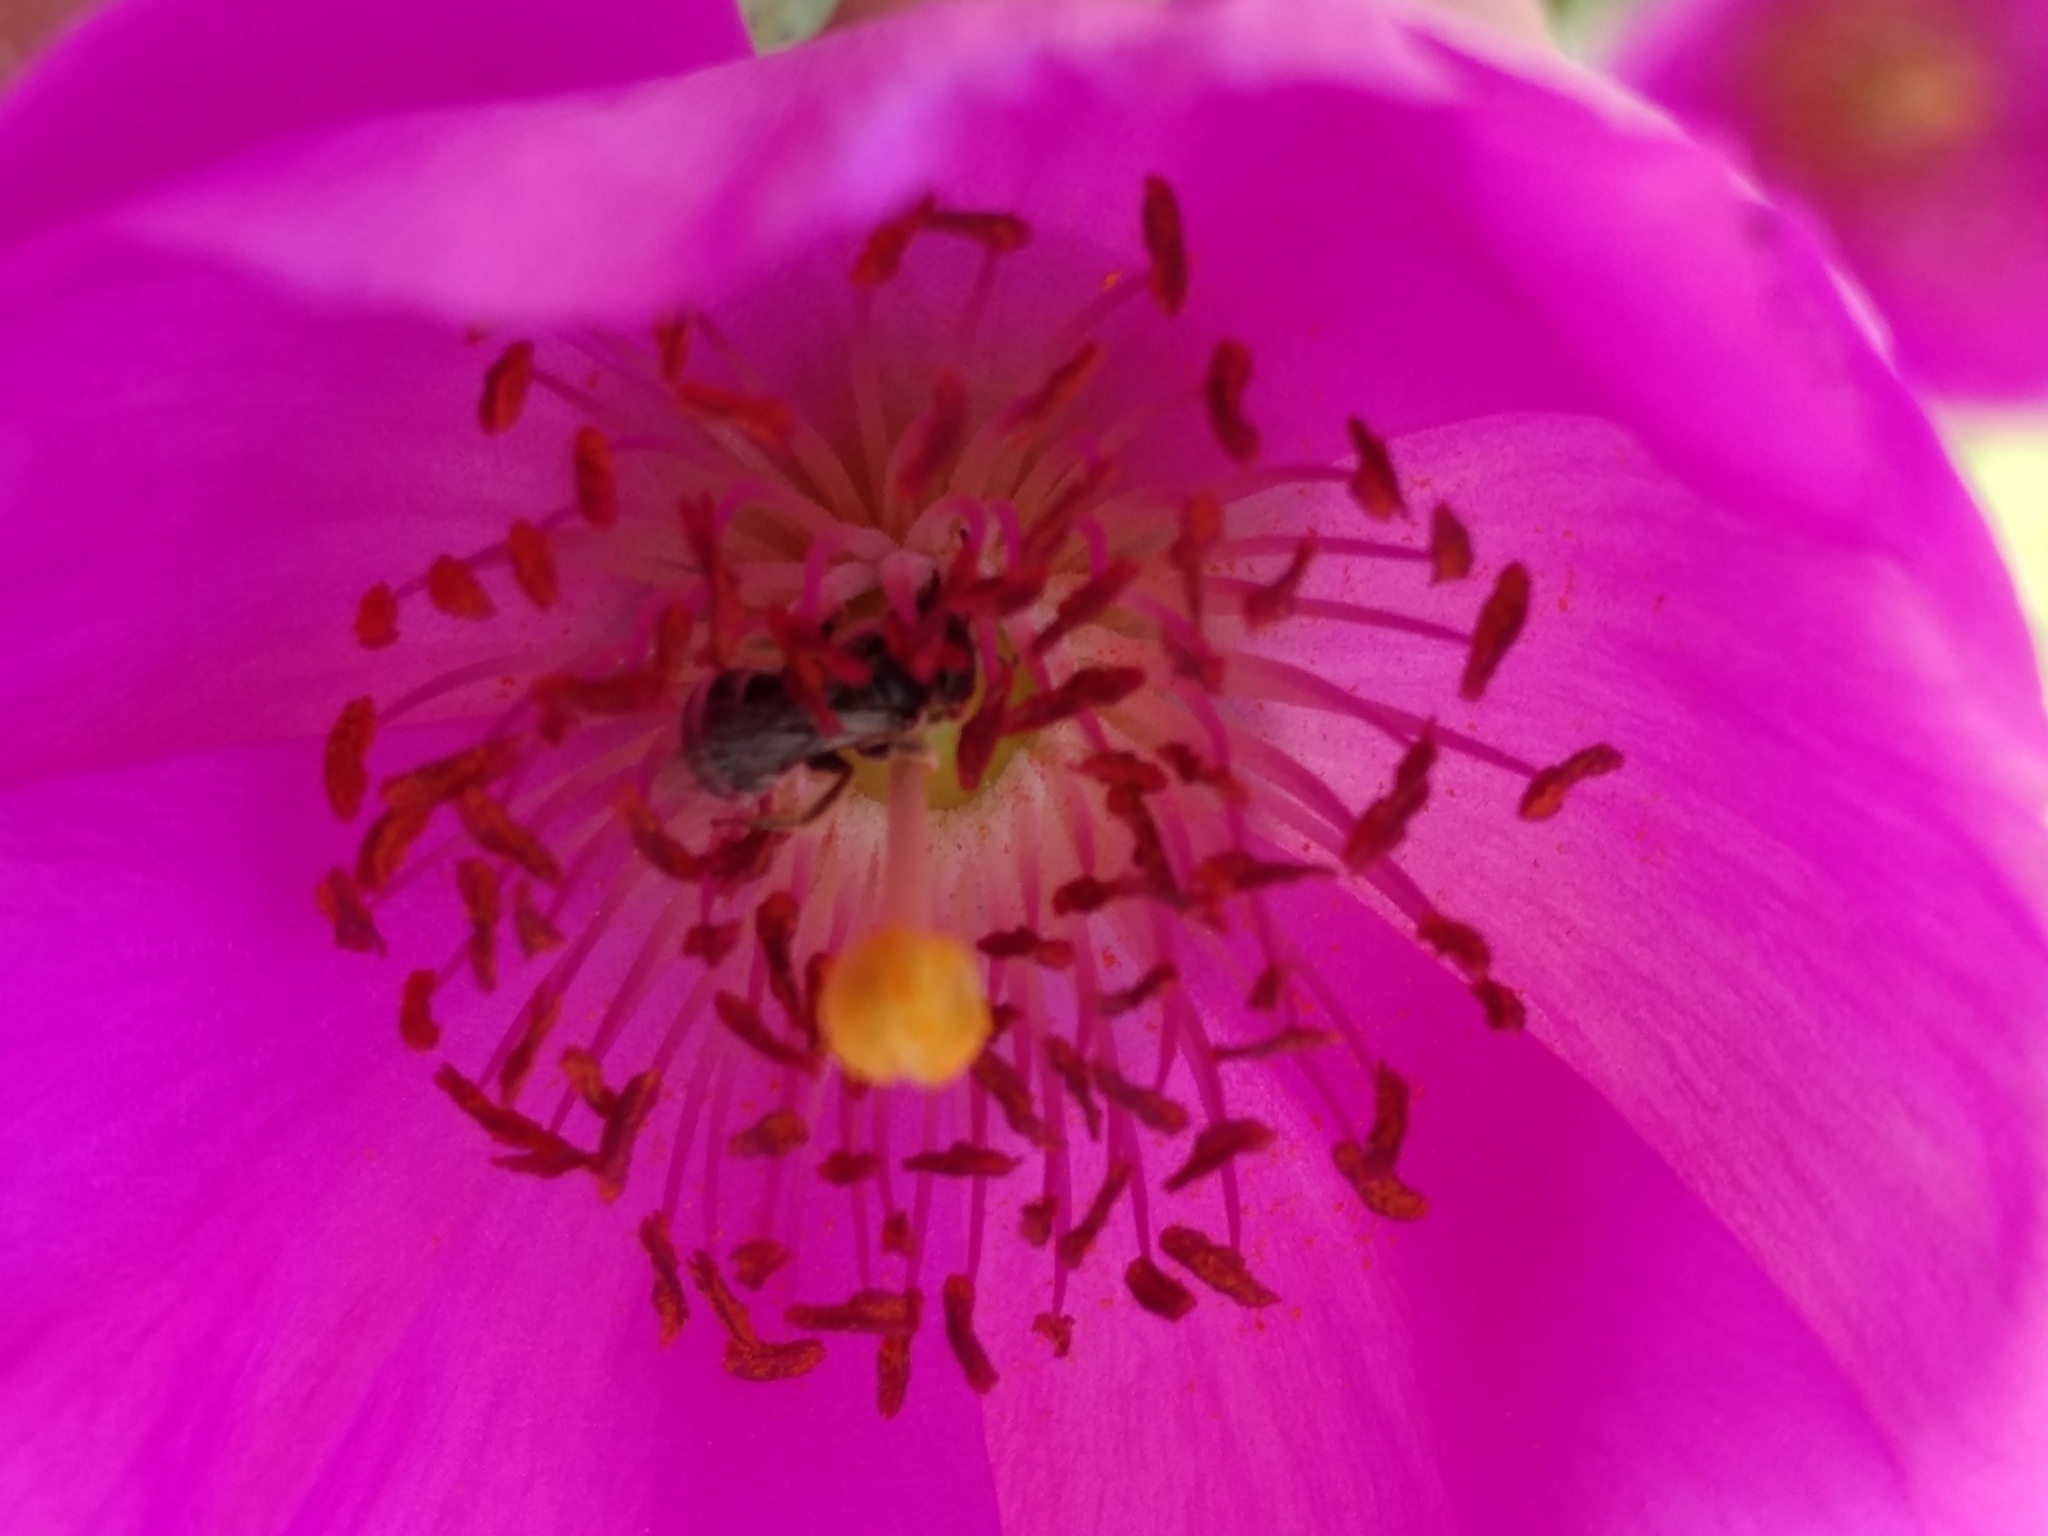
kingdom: Animalia
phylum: Arthropoda
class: Insecta
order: Hymenoptera
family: Halictidae
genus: Halictus
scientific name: Halictus tripartitus
